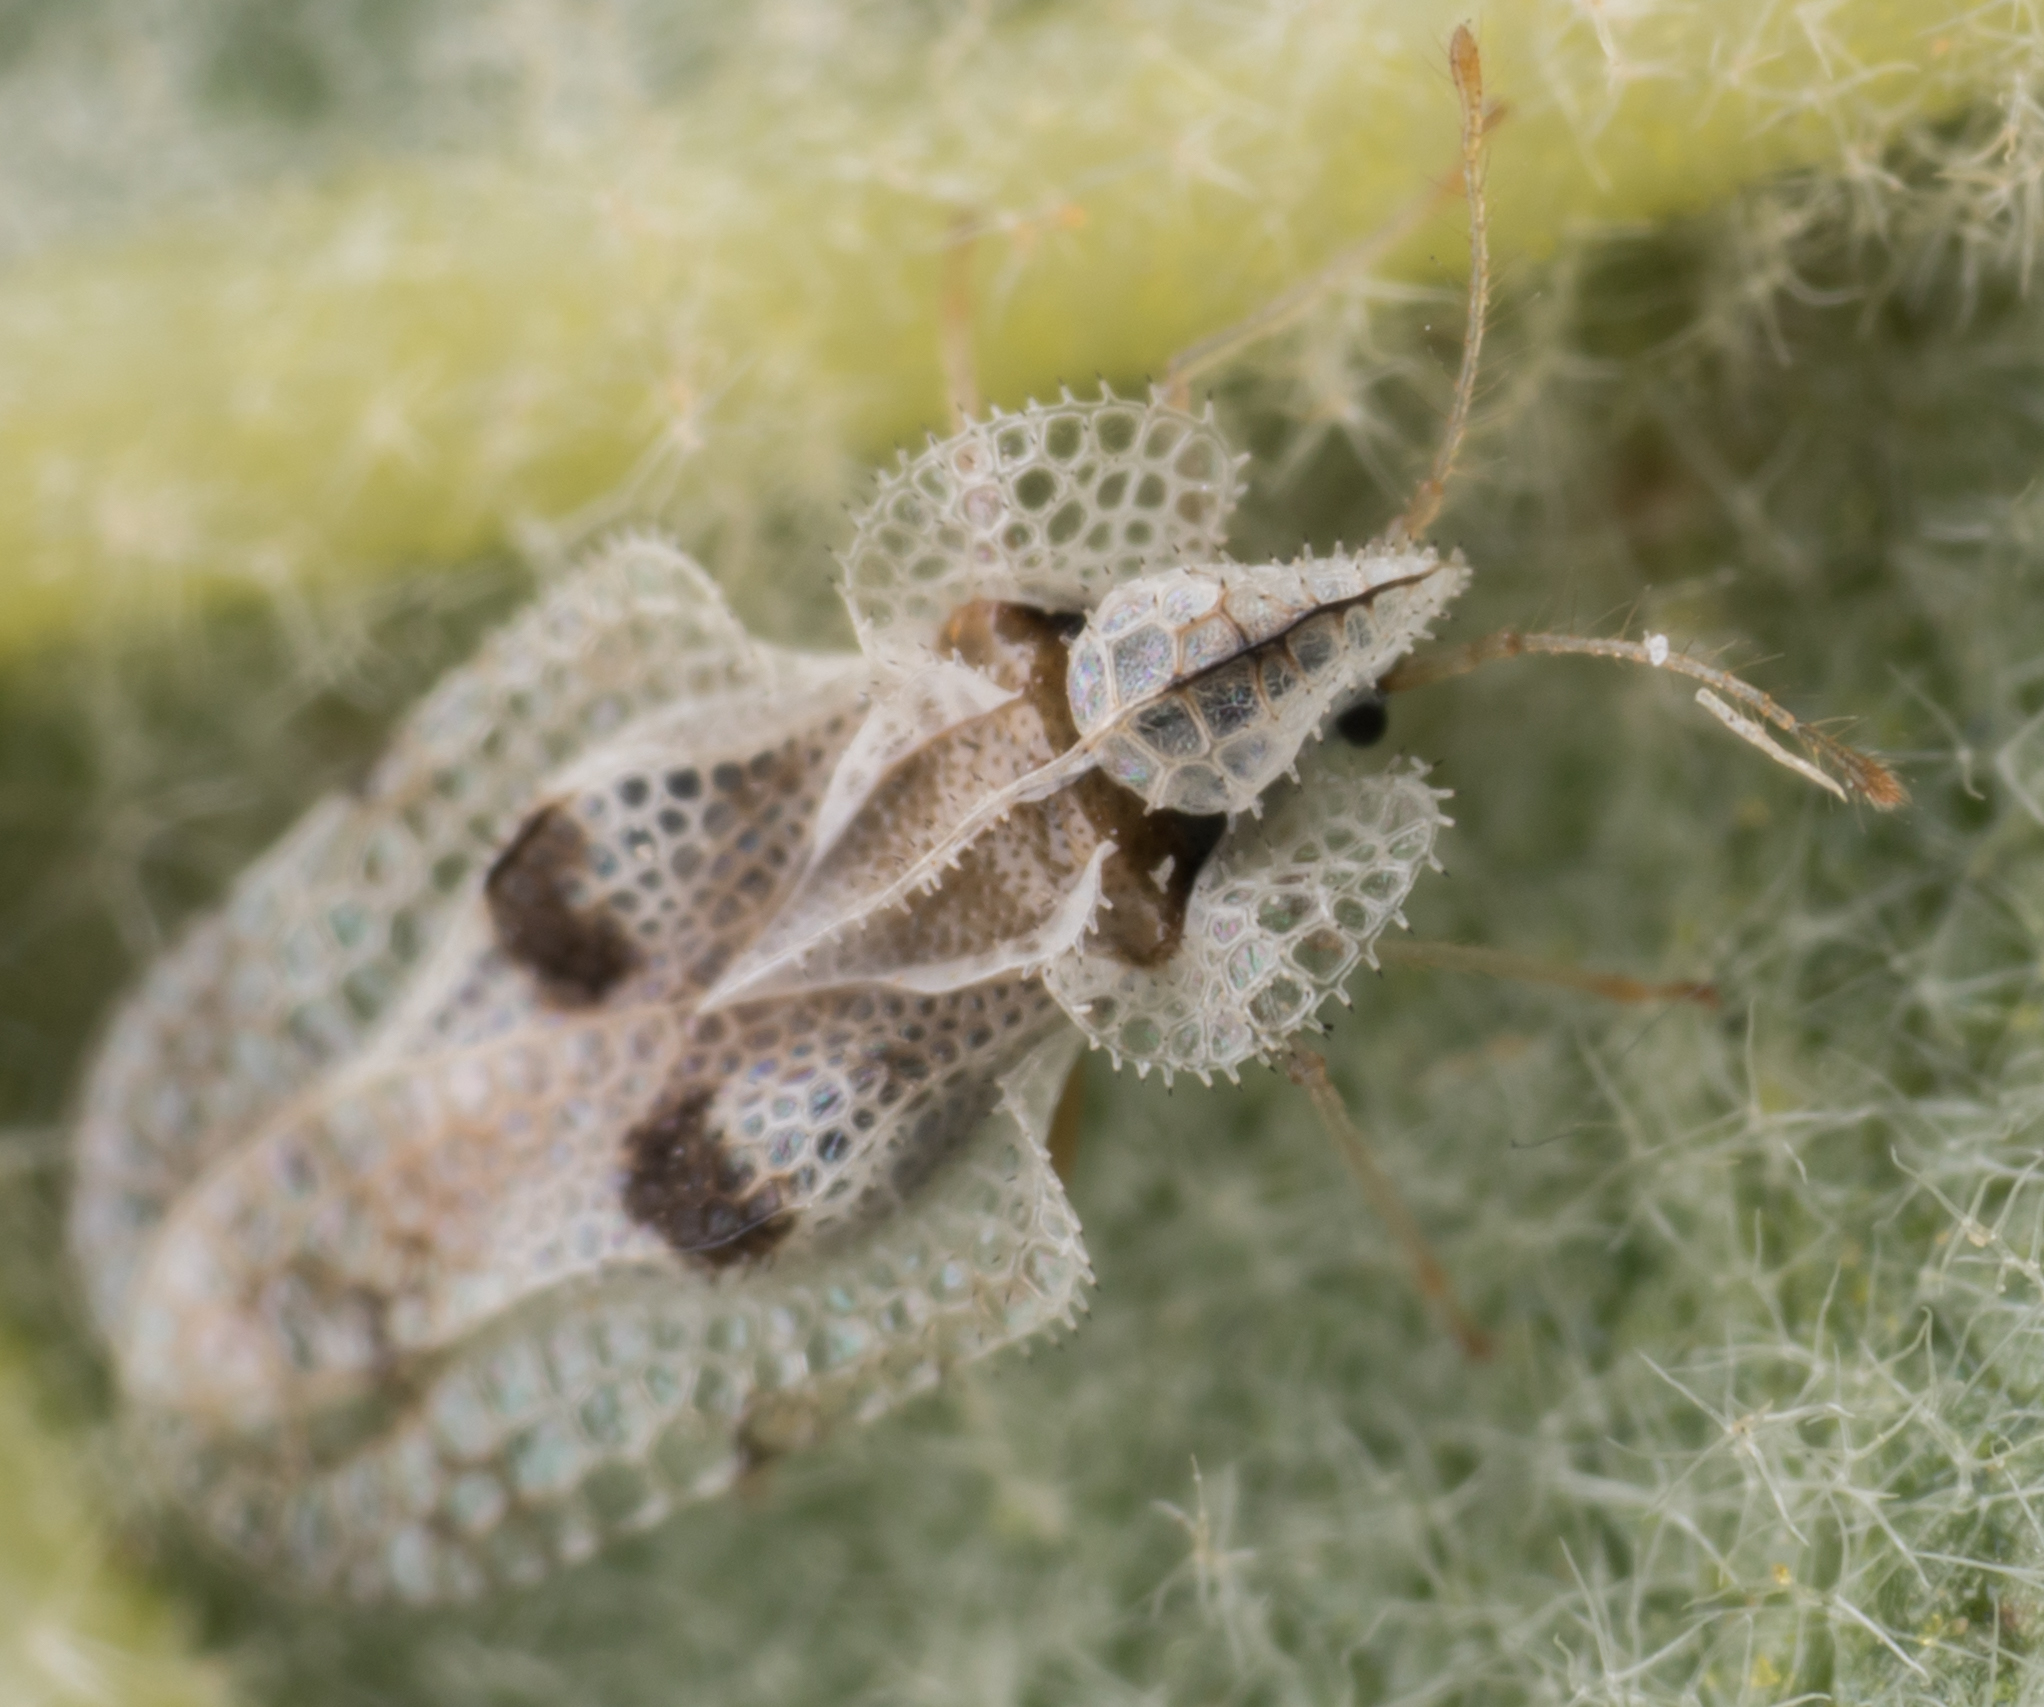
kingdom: Animalia
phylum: Arthropoda
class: Insecta
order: Hemiptera
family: Tingidae
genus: Corythucha
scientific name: Corythucha confraterna
